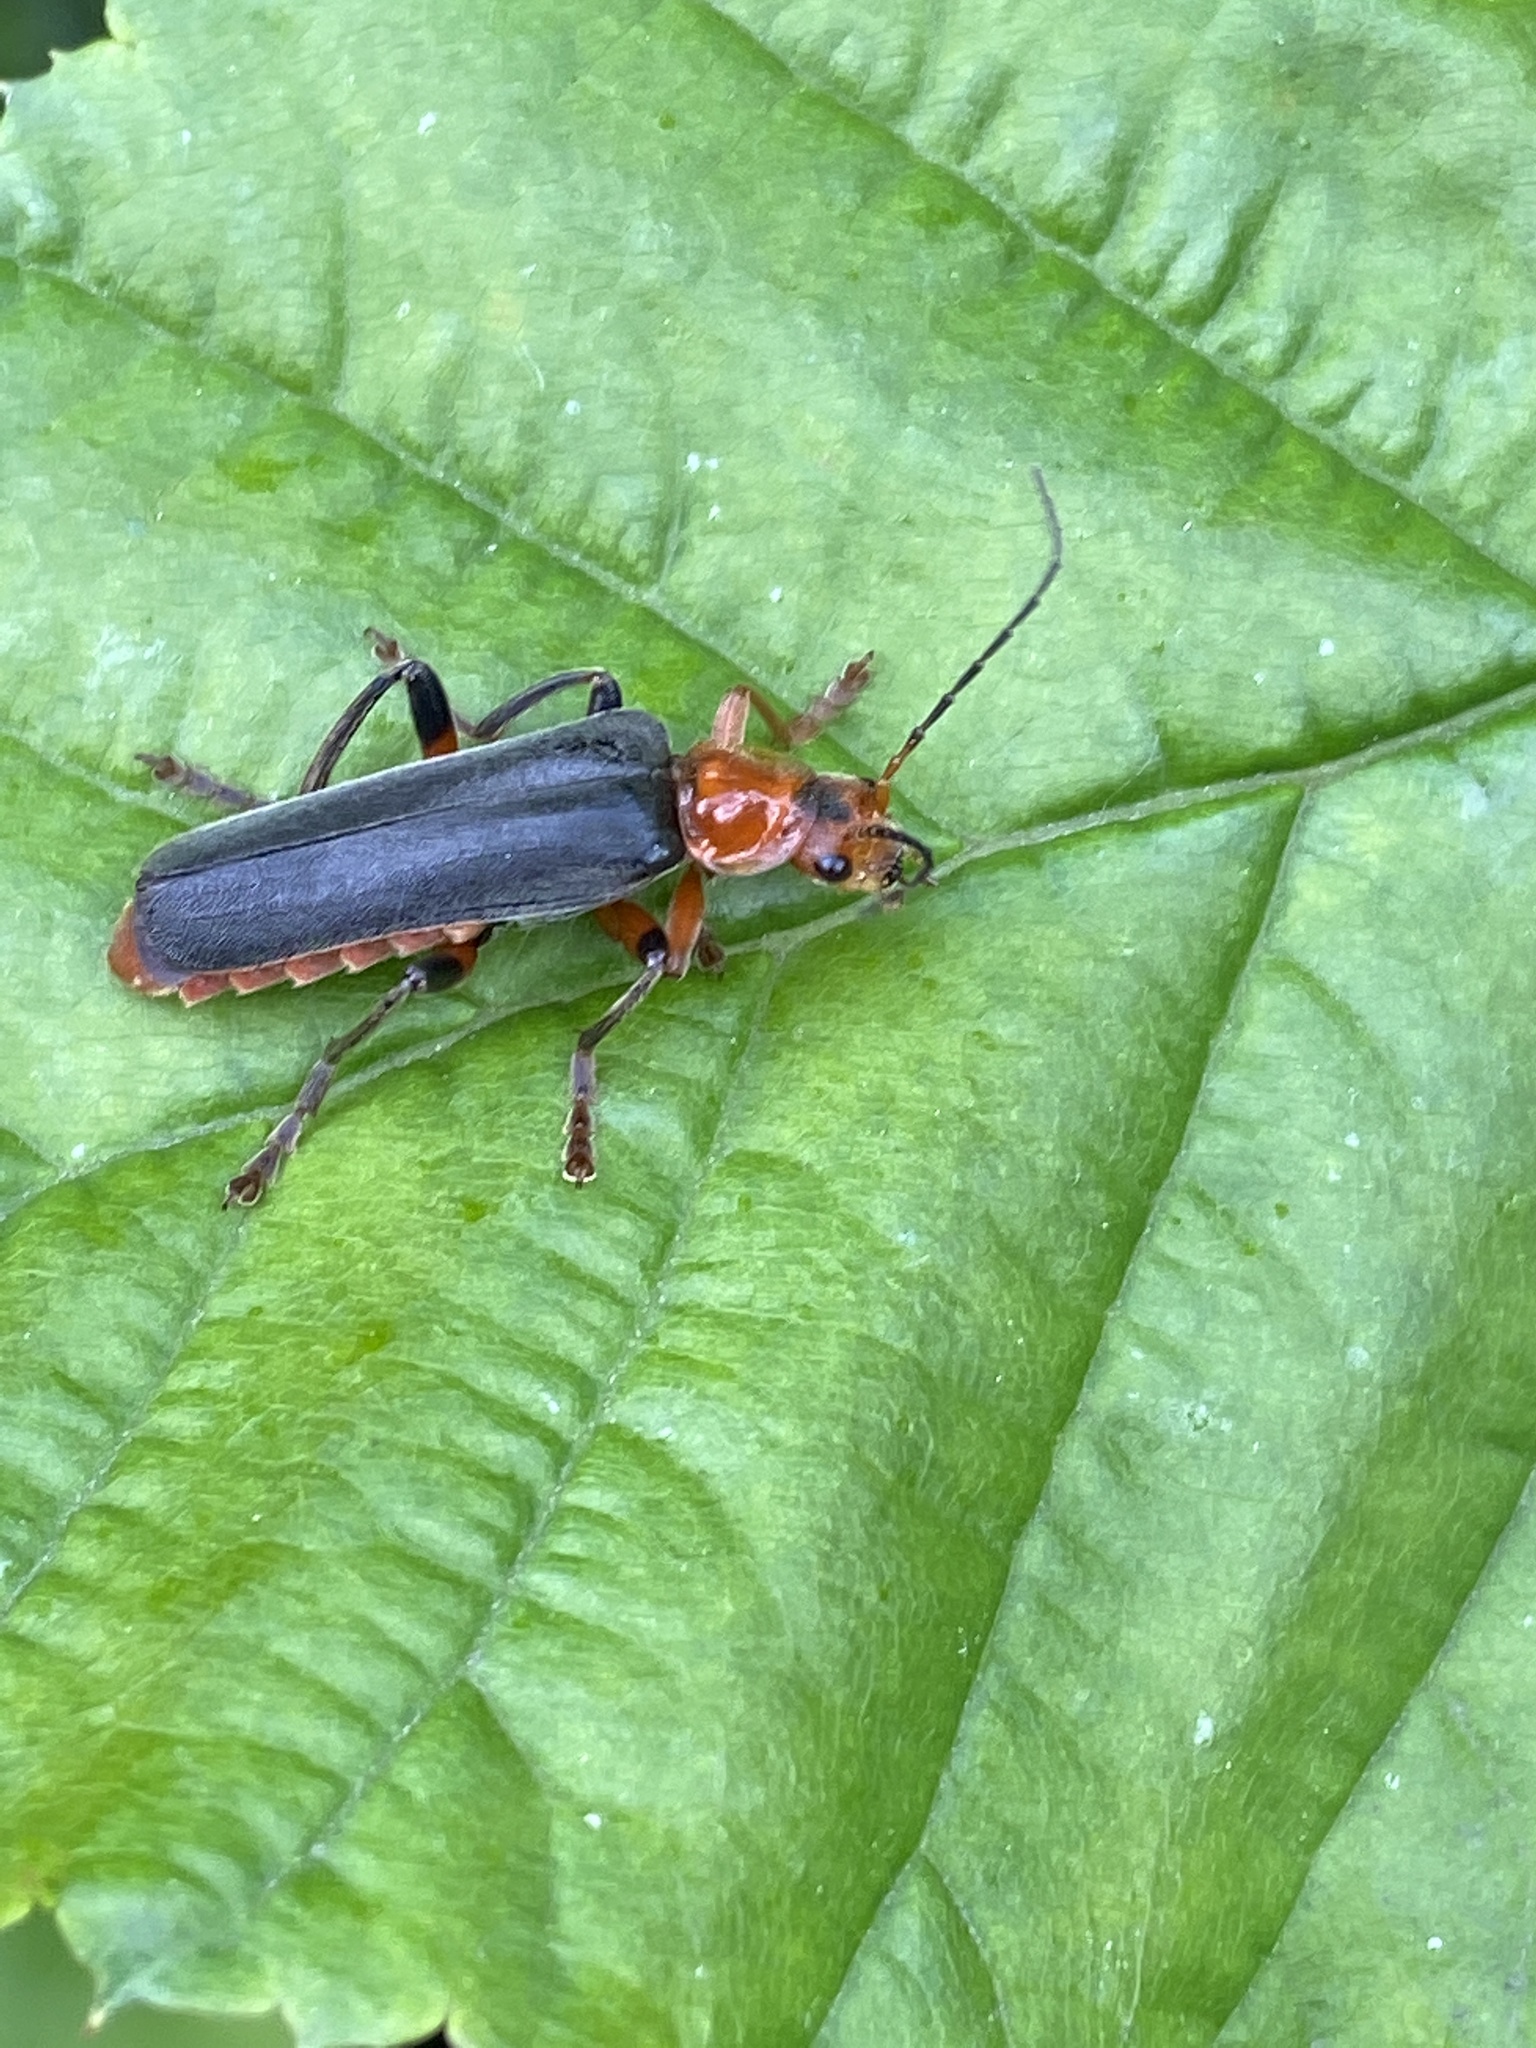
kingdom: Animalia
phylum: Arthropoda
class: Insecta
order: Coleoptera
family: Cantharidae
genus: Cantharis
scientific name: Cantharis livida
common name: Livid soldier beetle
